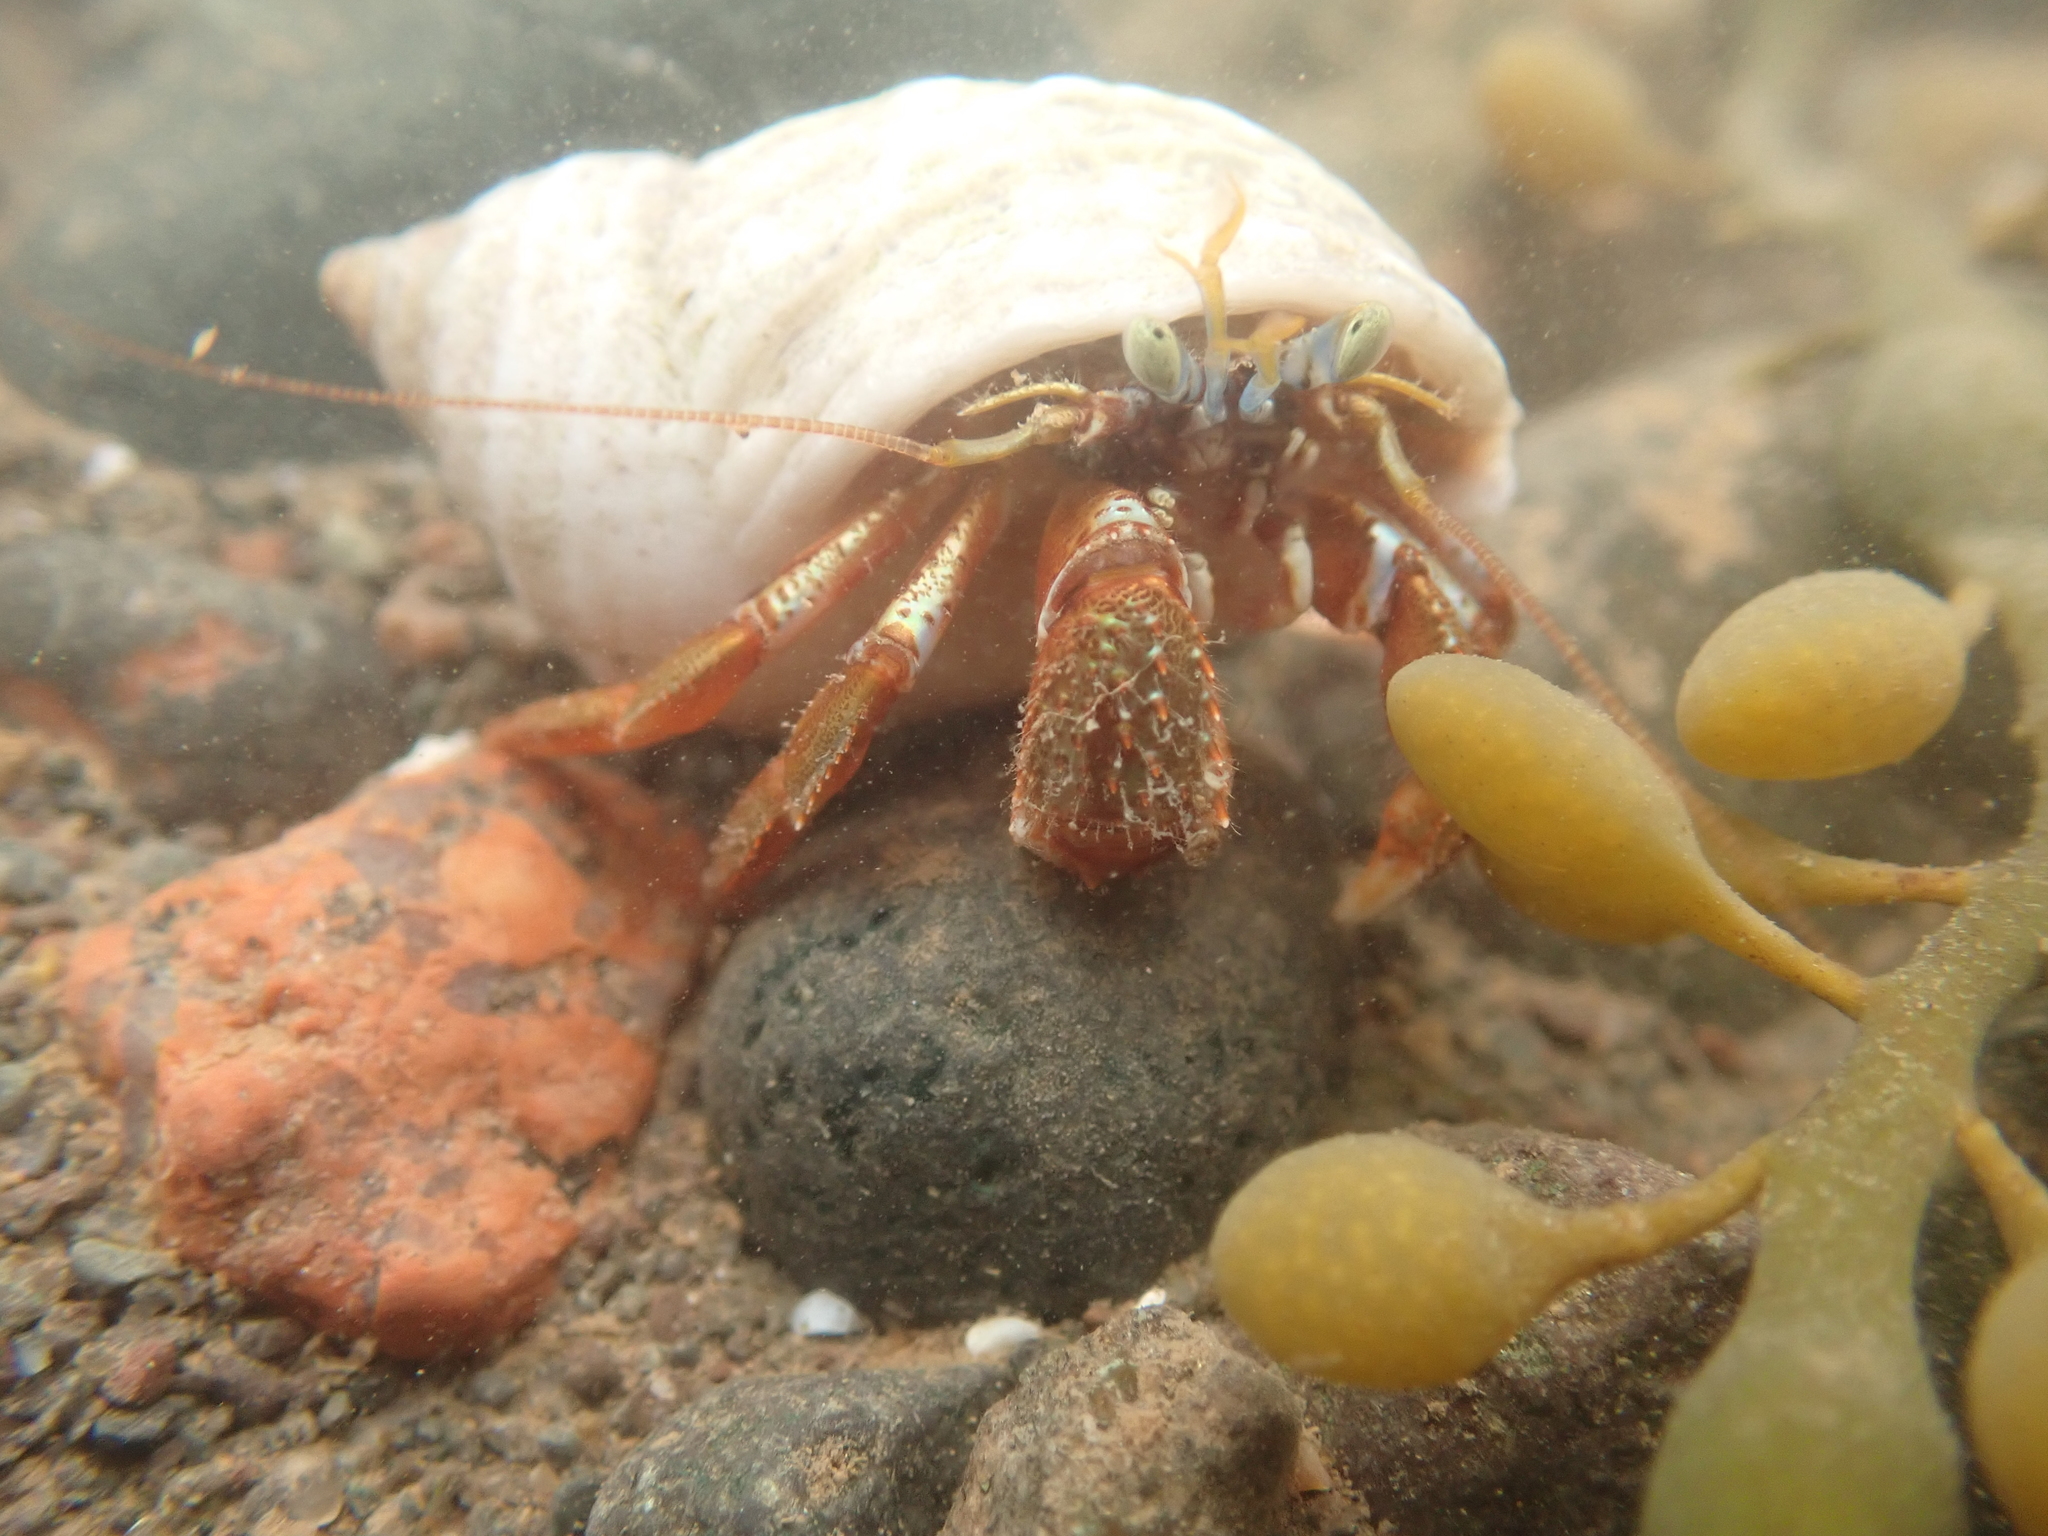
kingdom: Animalia
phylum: Arthropoda
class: Malacostraca
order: Decapoda
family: Paguridae
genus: Pagurus
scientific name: Pagurus acadianus
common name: Acadian hermit crab
